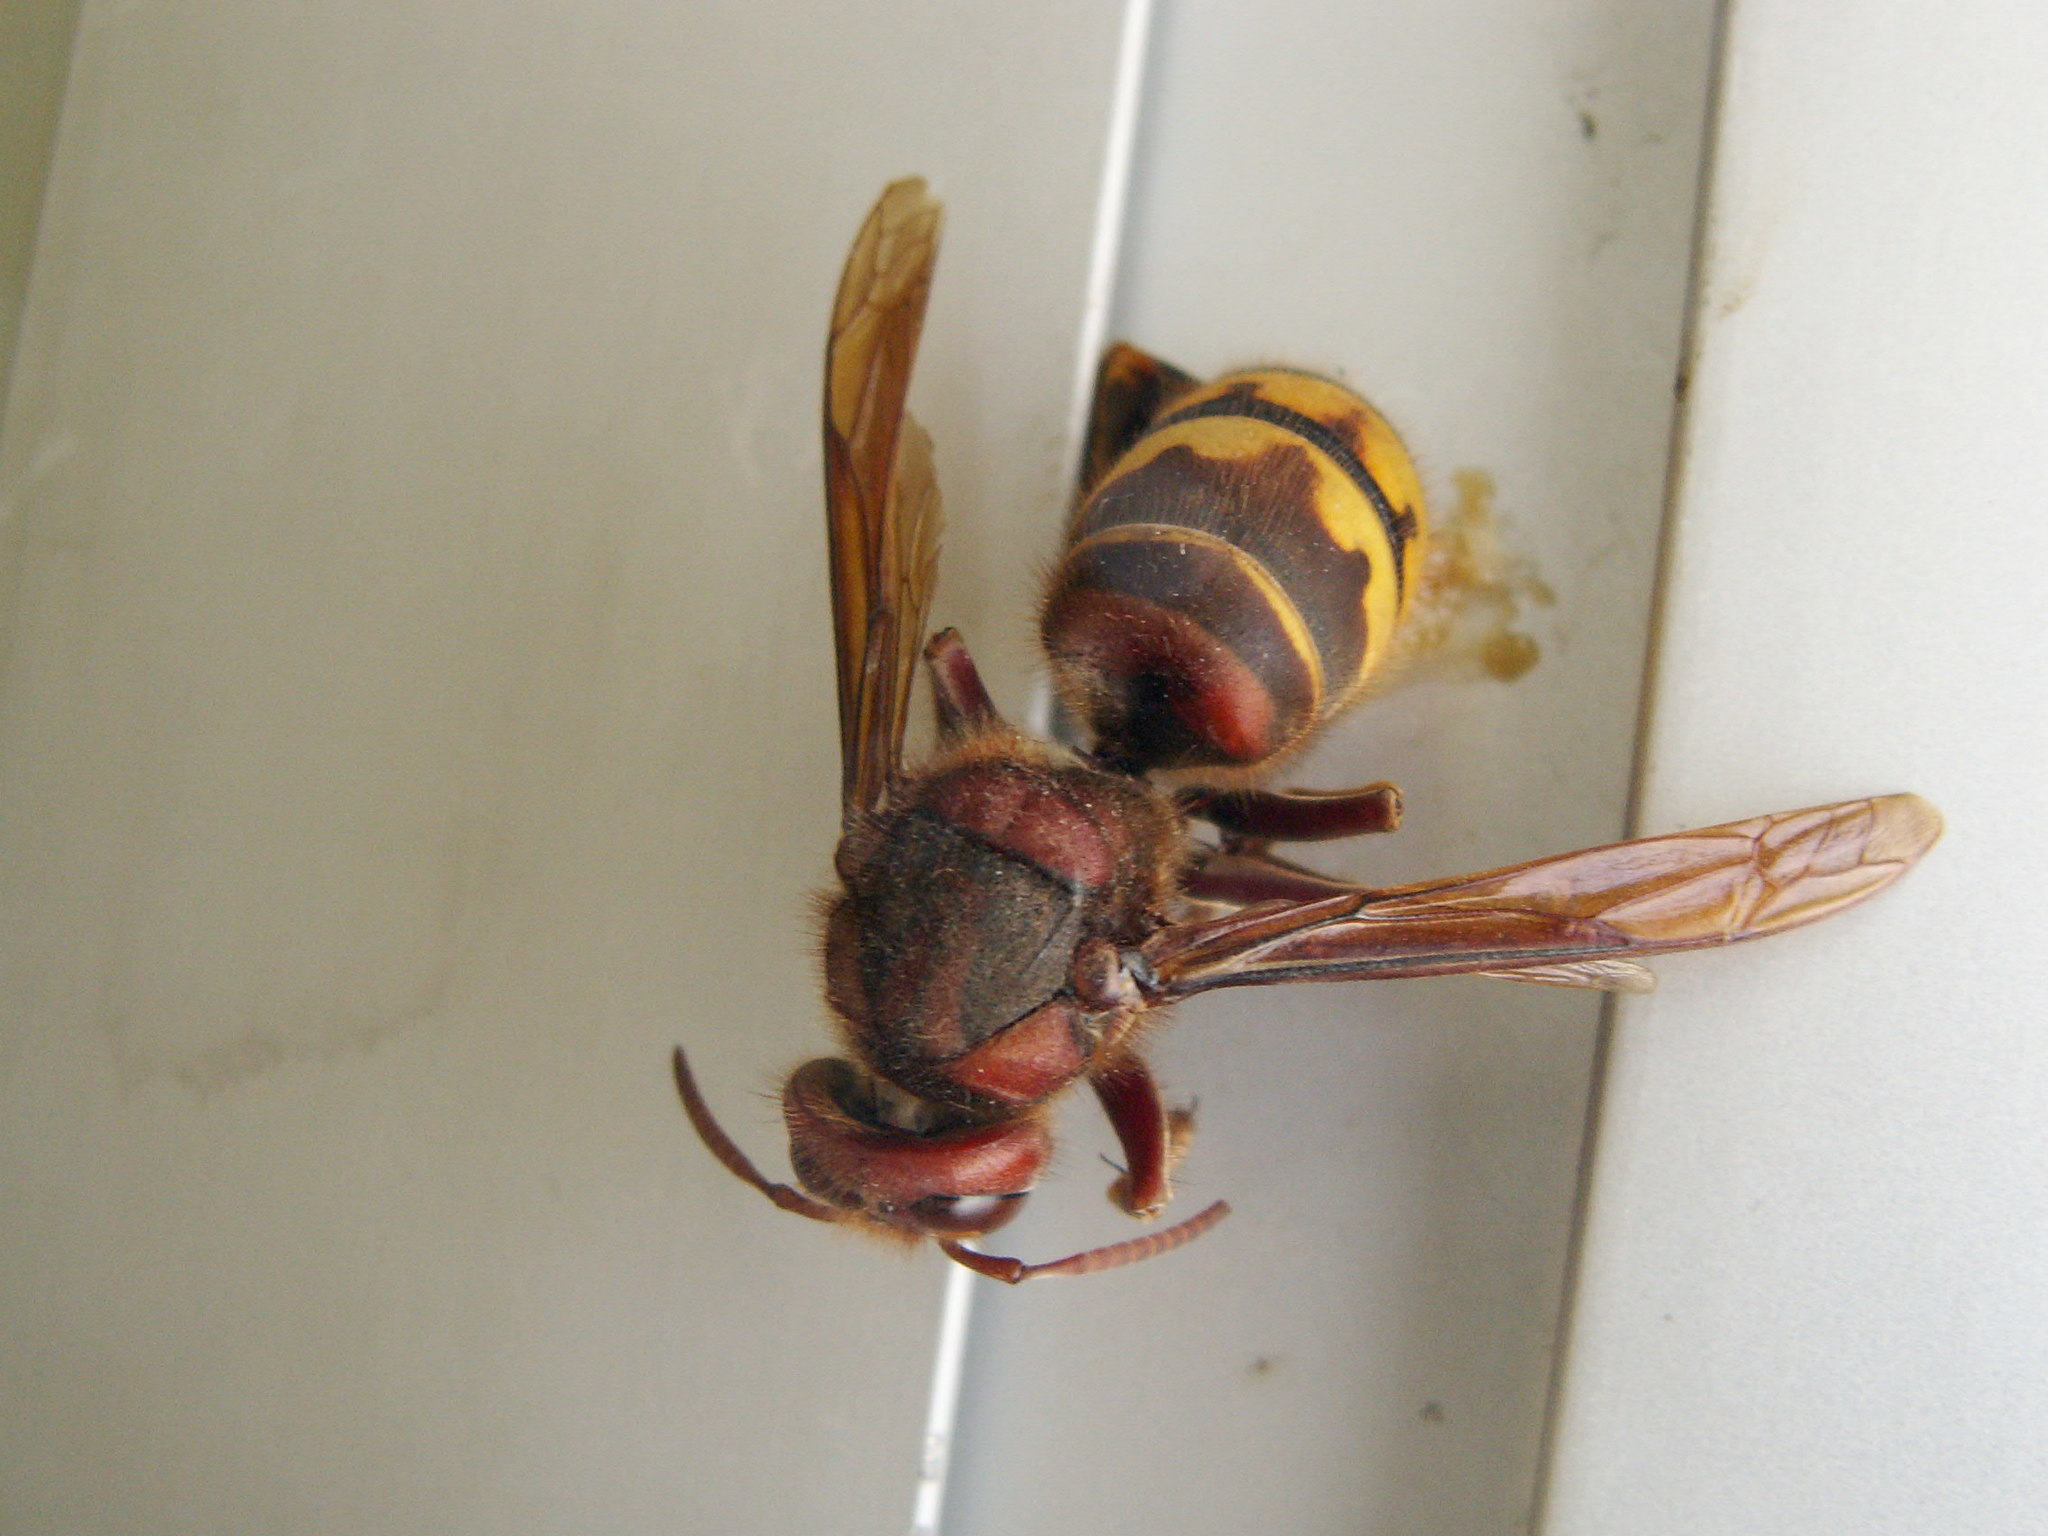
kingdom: Animalia
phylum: Arthropoda
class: Insecta
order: Hymenoptera
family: Vespidae
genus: Vespa
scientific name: Vespa crabro
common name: Hornet
